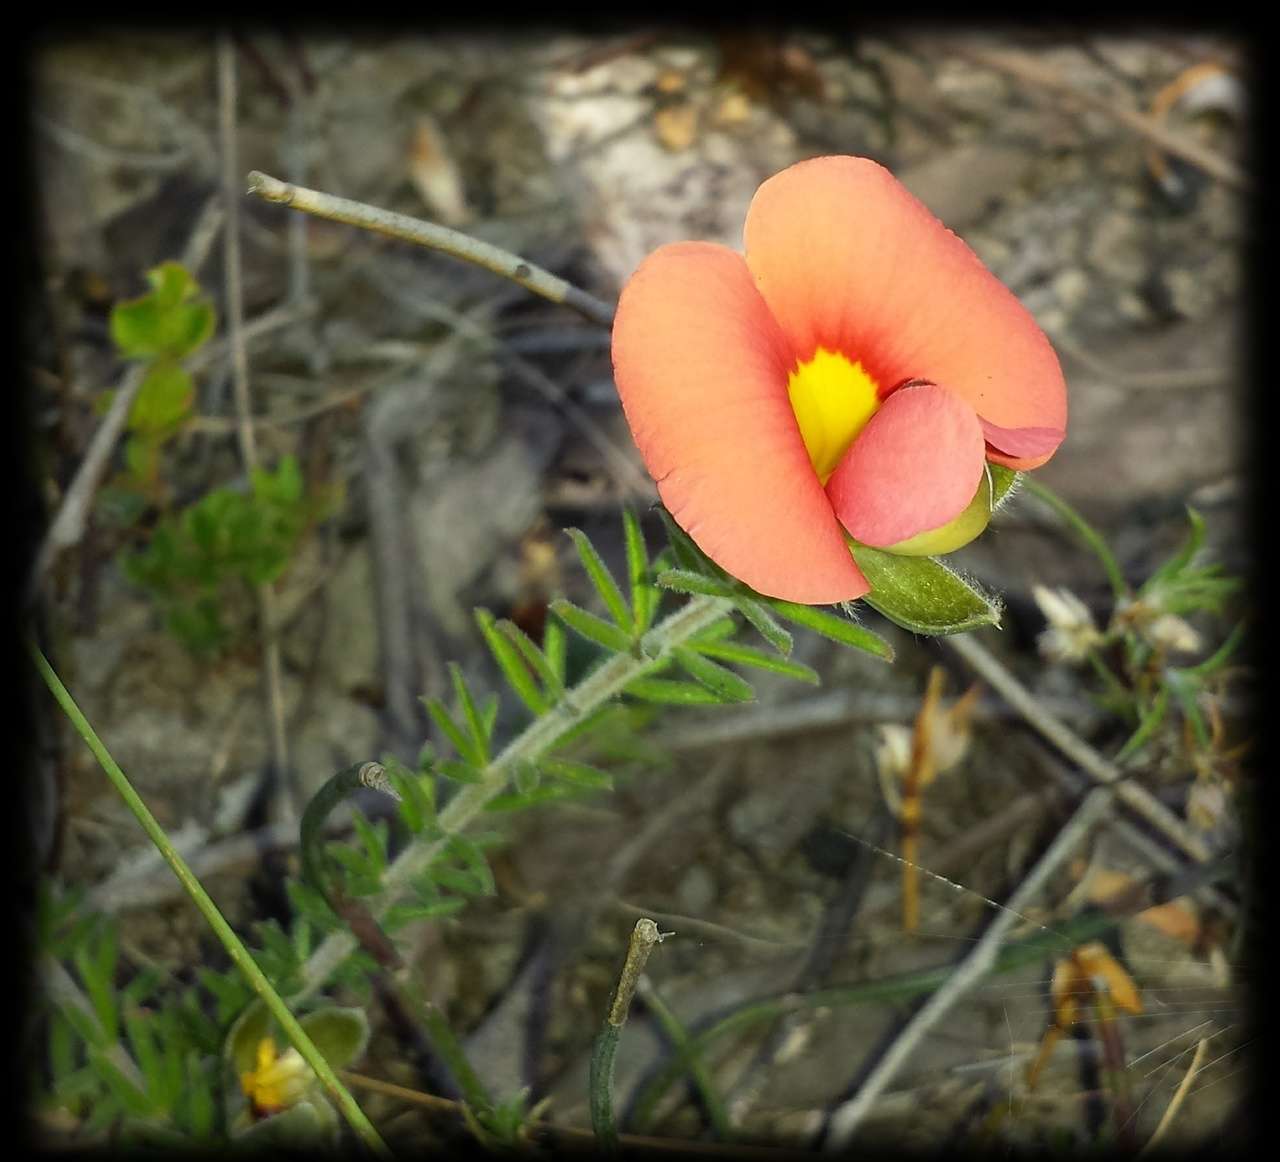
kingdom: Plantae
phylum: Tracheophyta
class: Magnoliopsida
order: Fabales
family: Fabaceae
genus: Gompholobium
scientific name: Gompholobium ecostatum
